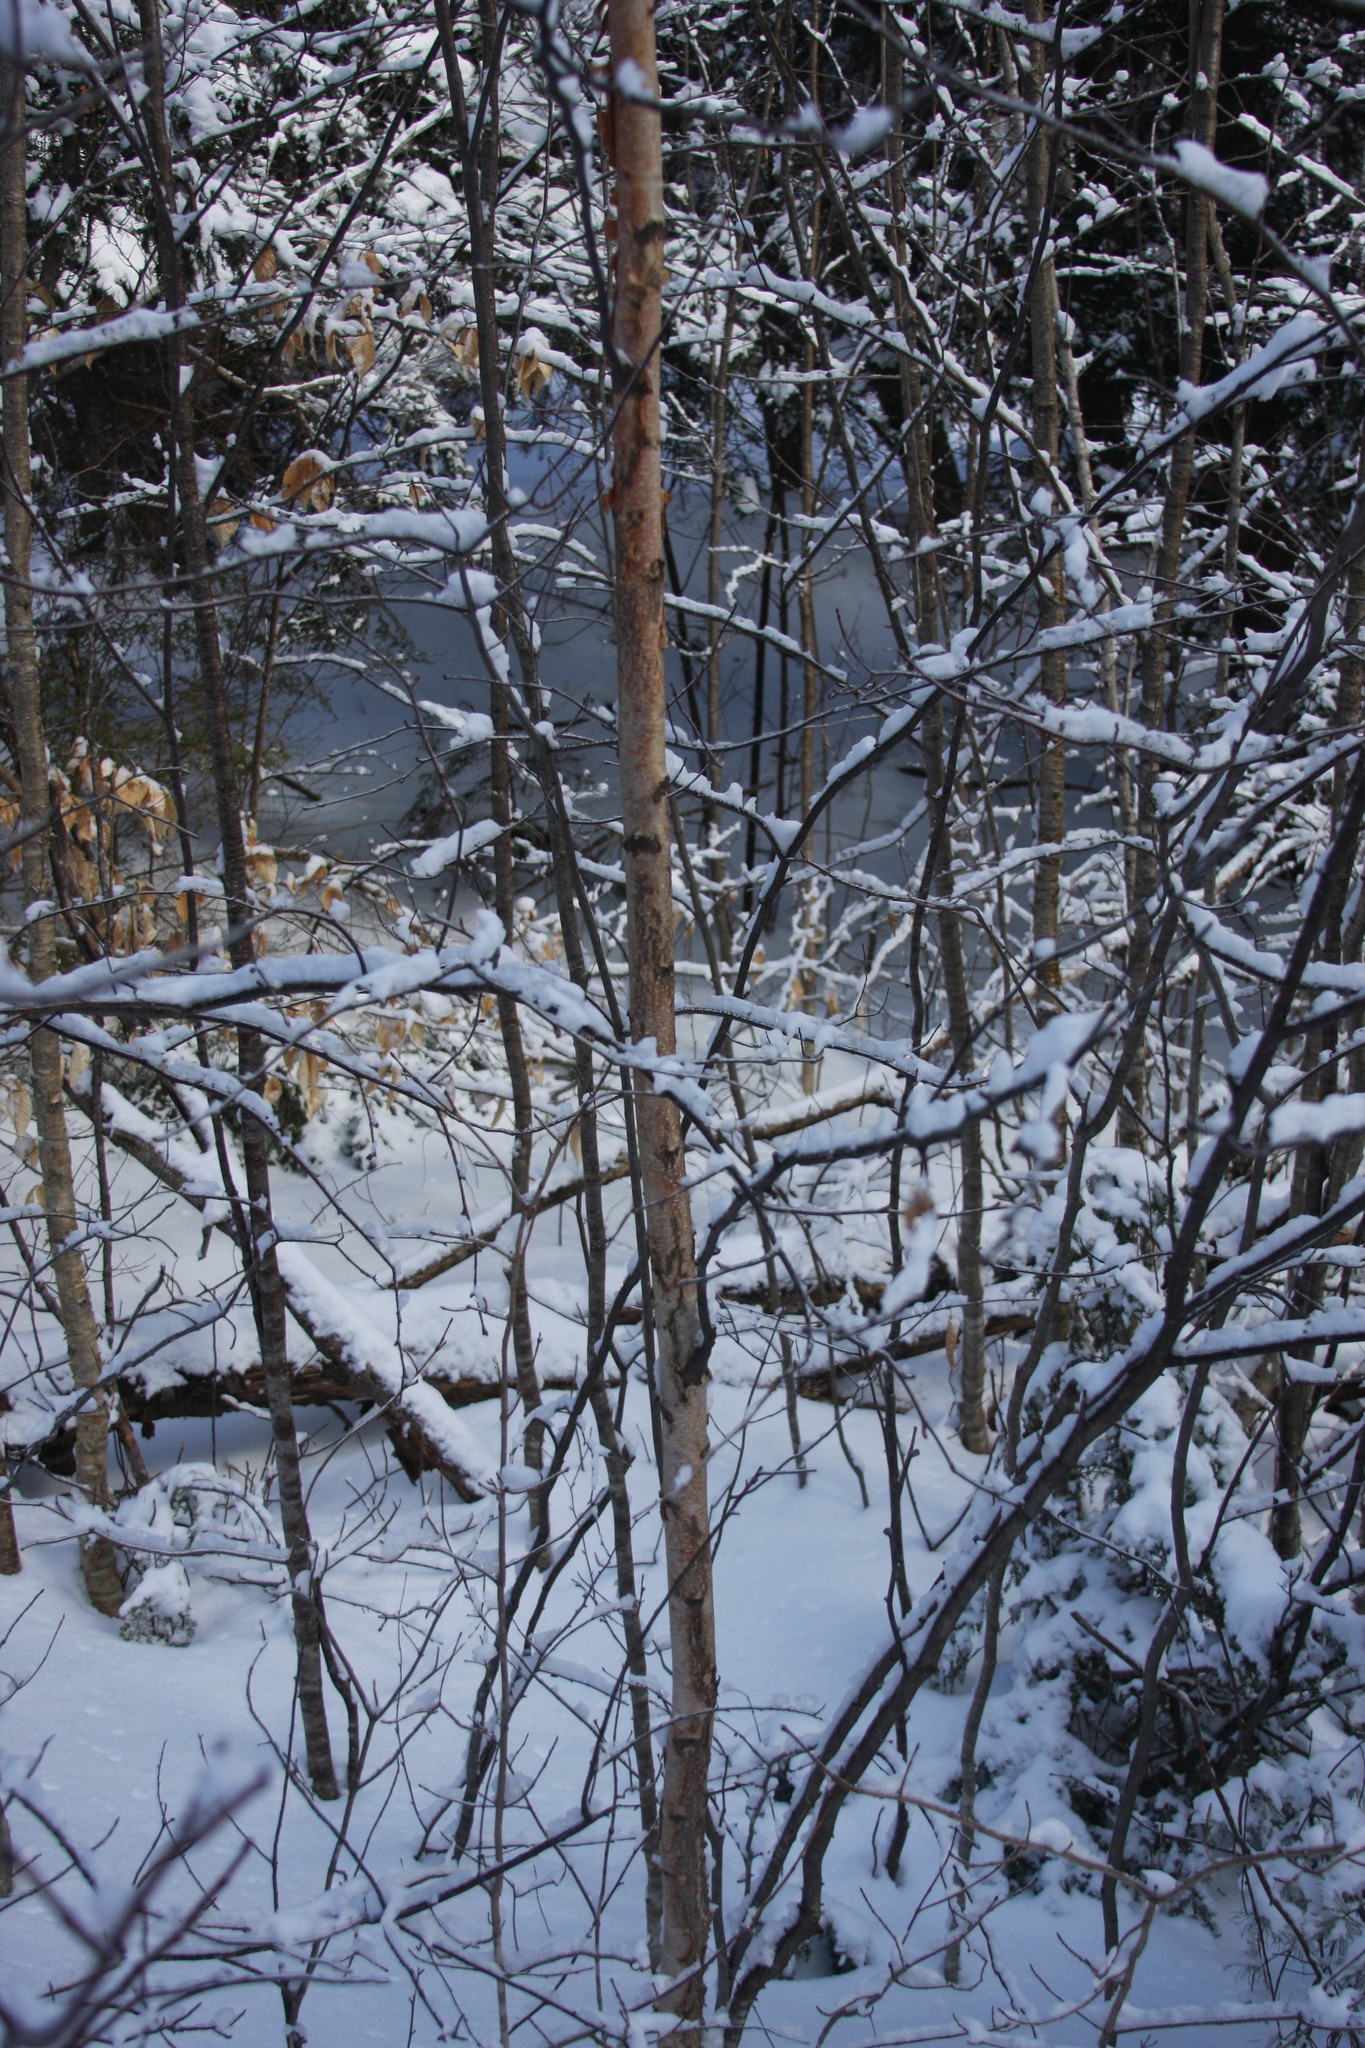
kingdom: Plantae
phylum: Tracheophyta
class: Magnoliopsida
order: Fagales
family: Betulaceae
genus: Betula
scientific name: Betula cordifolia
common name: Mountain white birch
